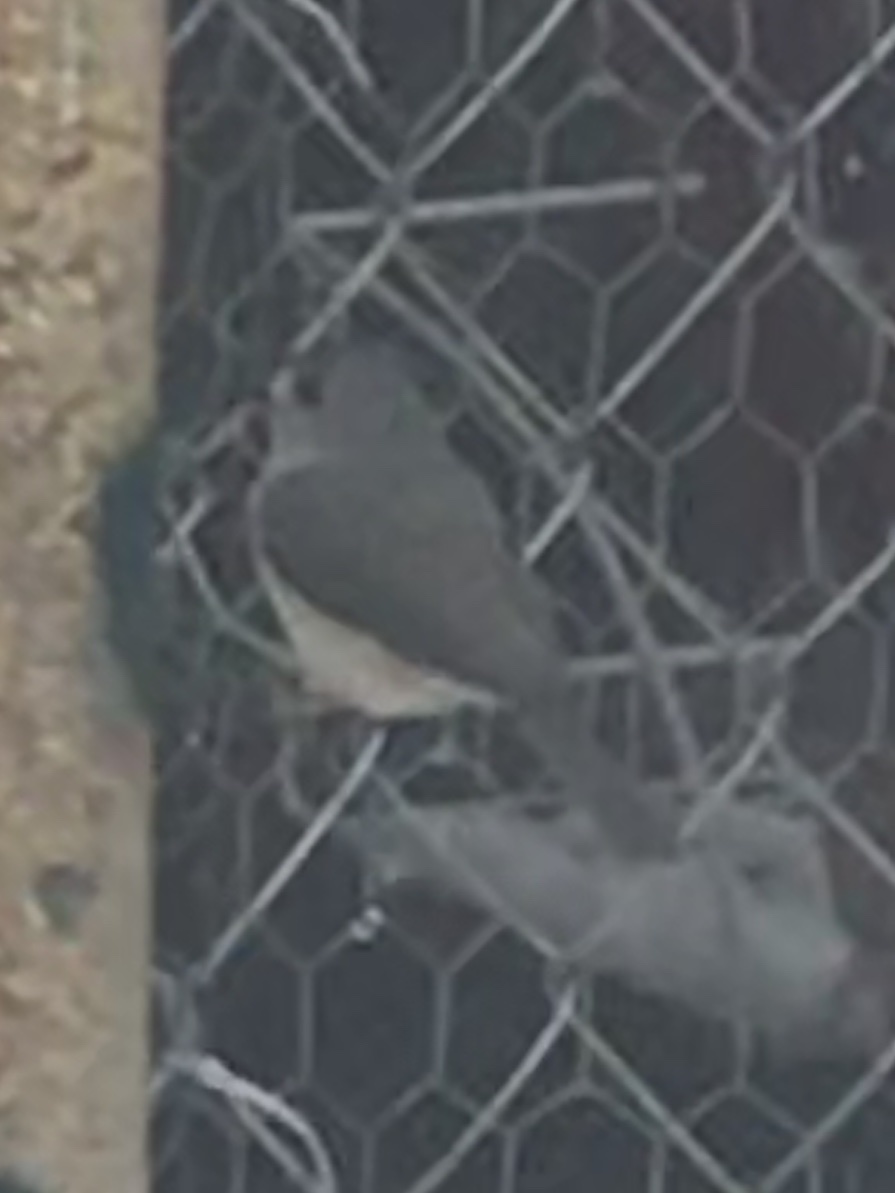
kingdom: Animalia
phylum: Chordata
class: Aves
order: Passeriformes
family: Paridae
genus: Baeolophus
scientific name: Baeolophus bicolor
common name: Tufted titmouse
